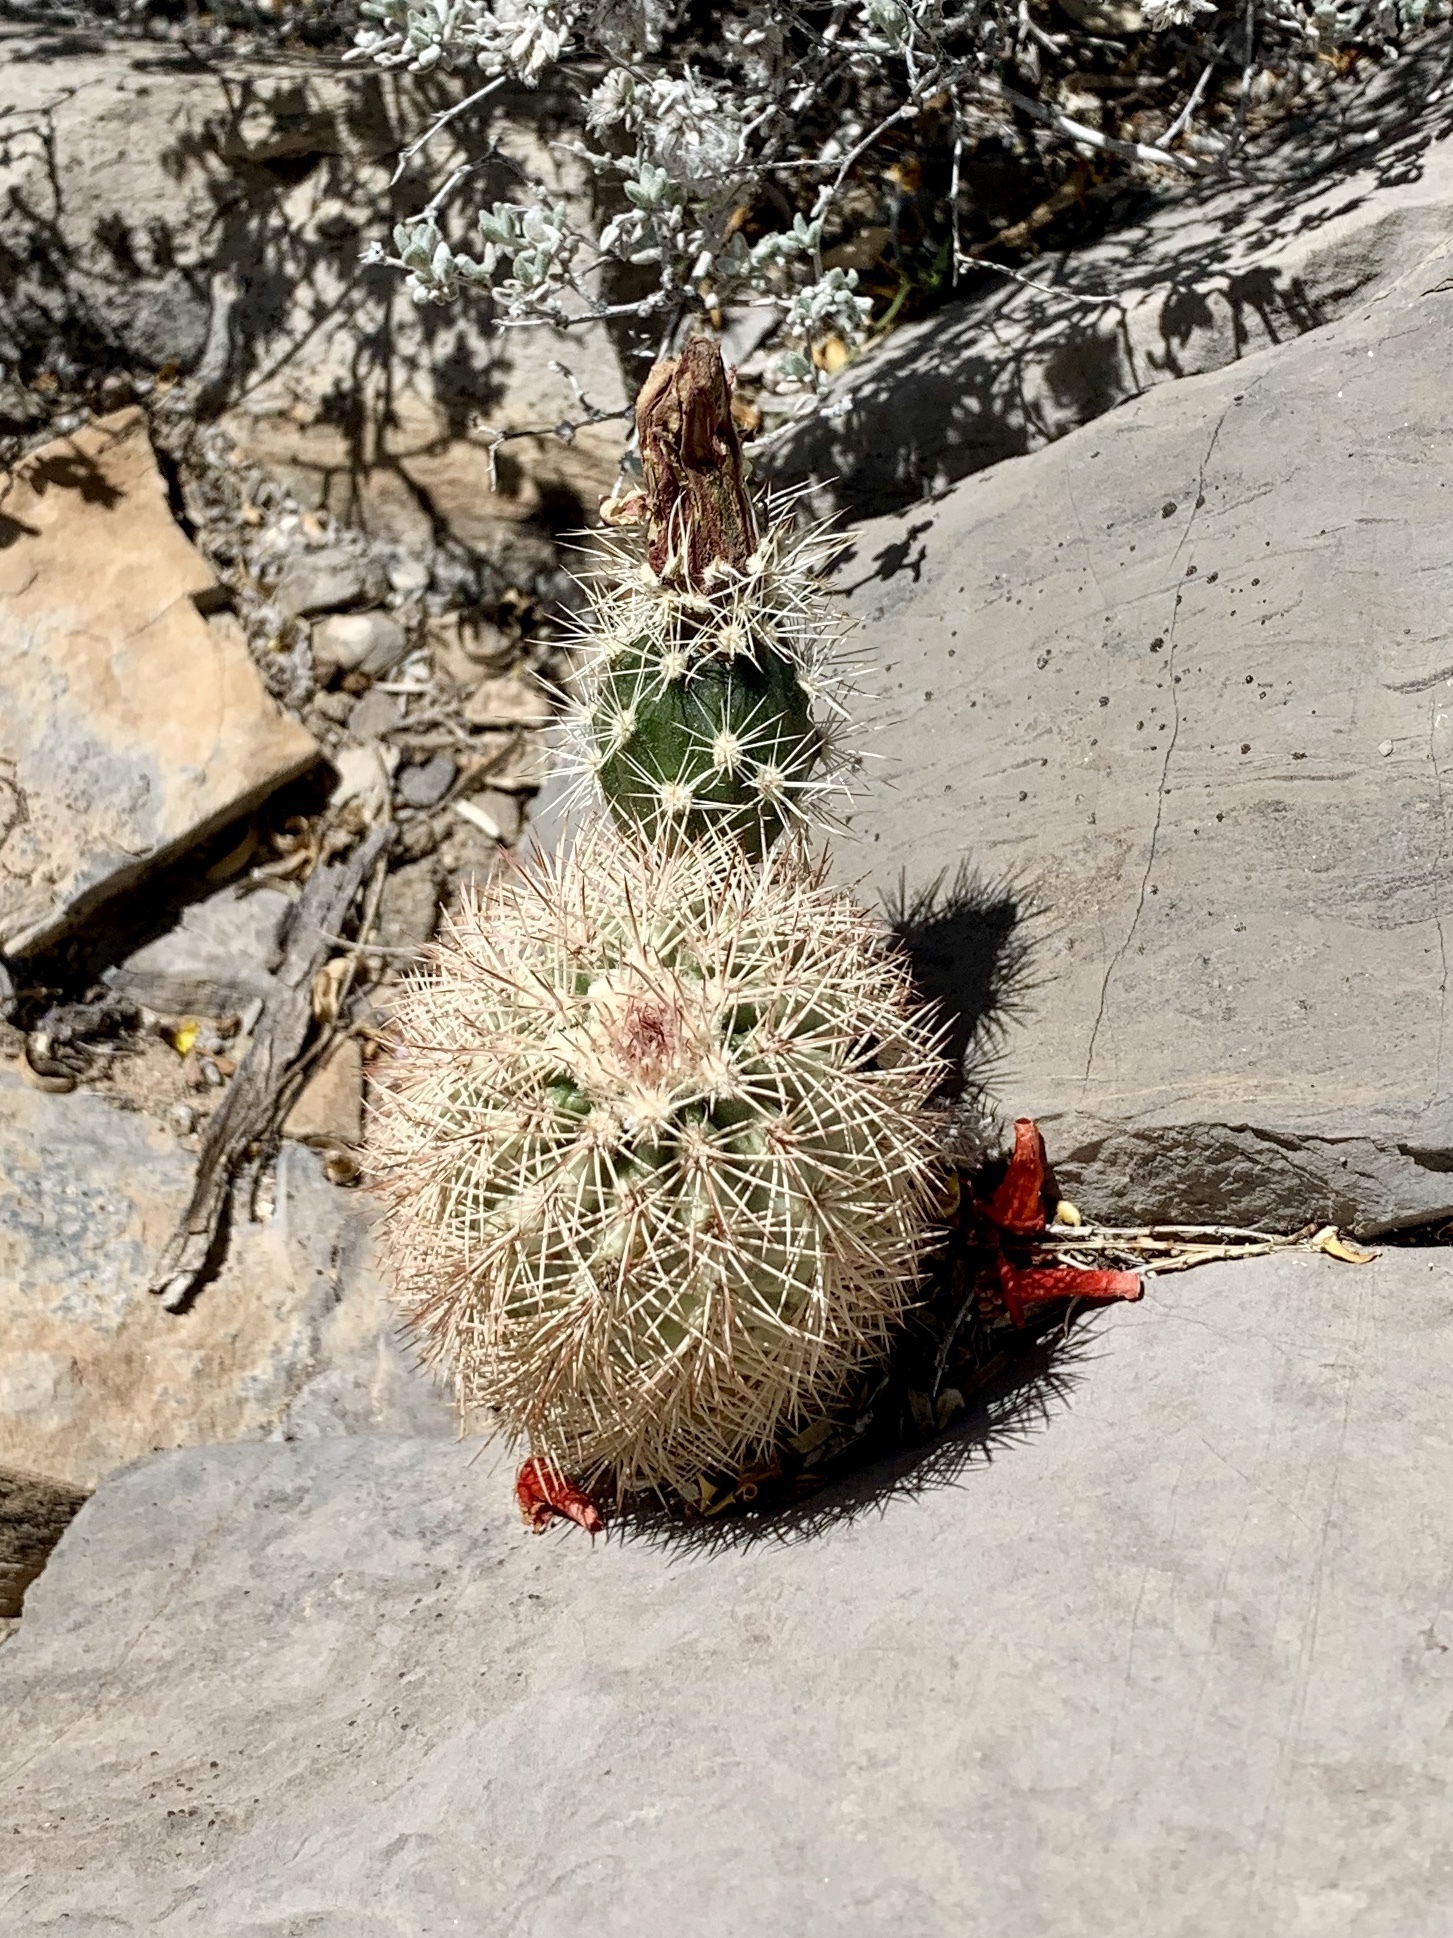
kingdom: Plantae
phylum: Tracheophyta
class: Magnoliopsida
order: Caryophyllales
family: Cactaceae
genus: Echinocereus
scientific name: Echinocereus roetteri
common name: Lloyd's hedgehog cactus
